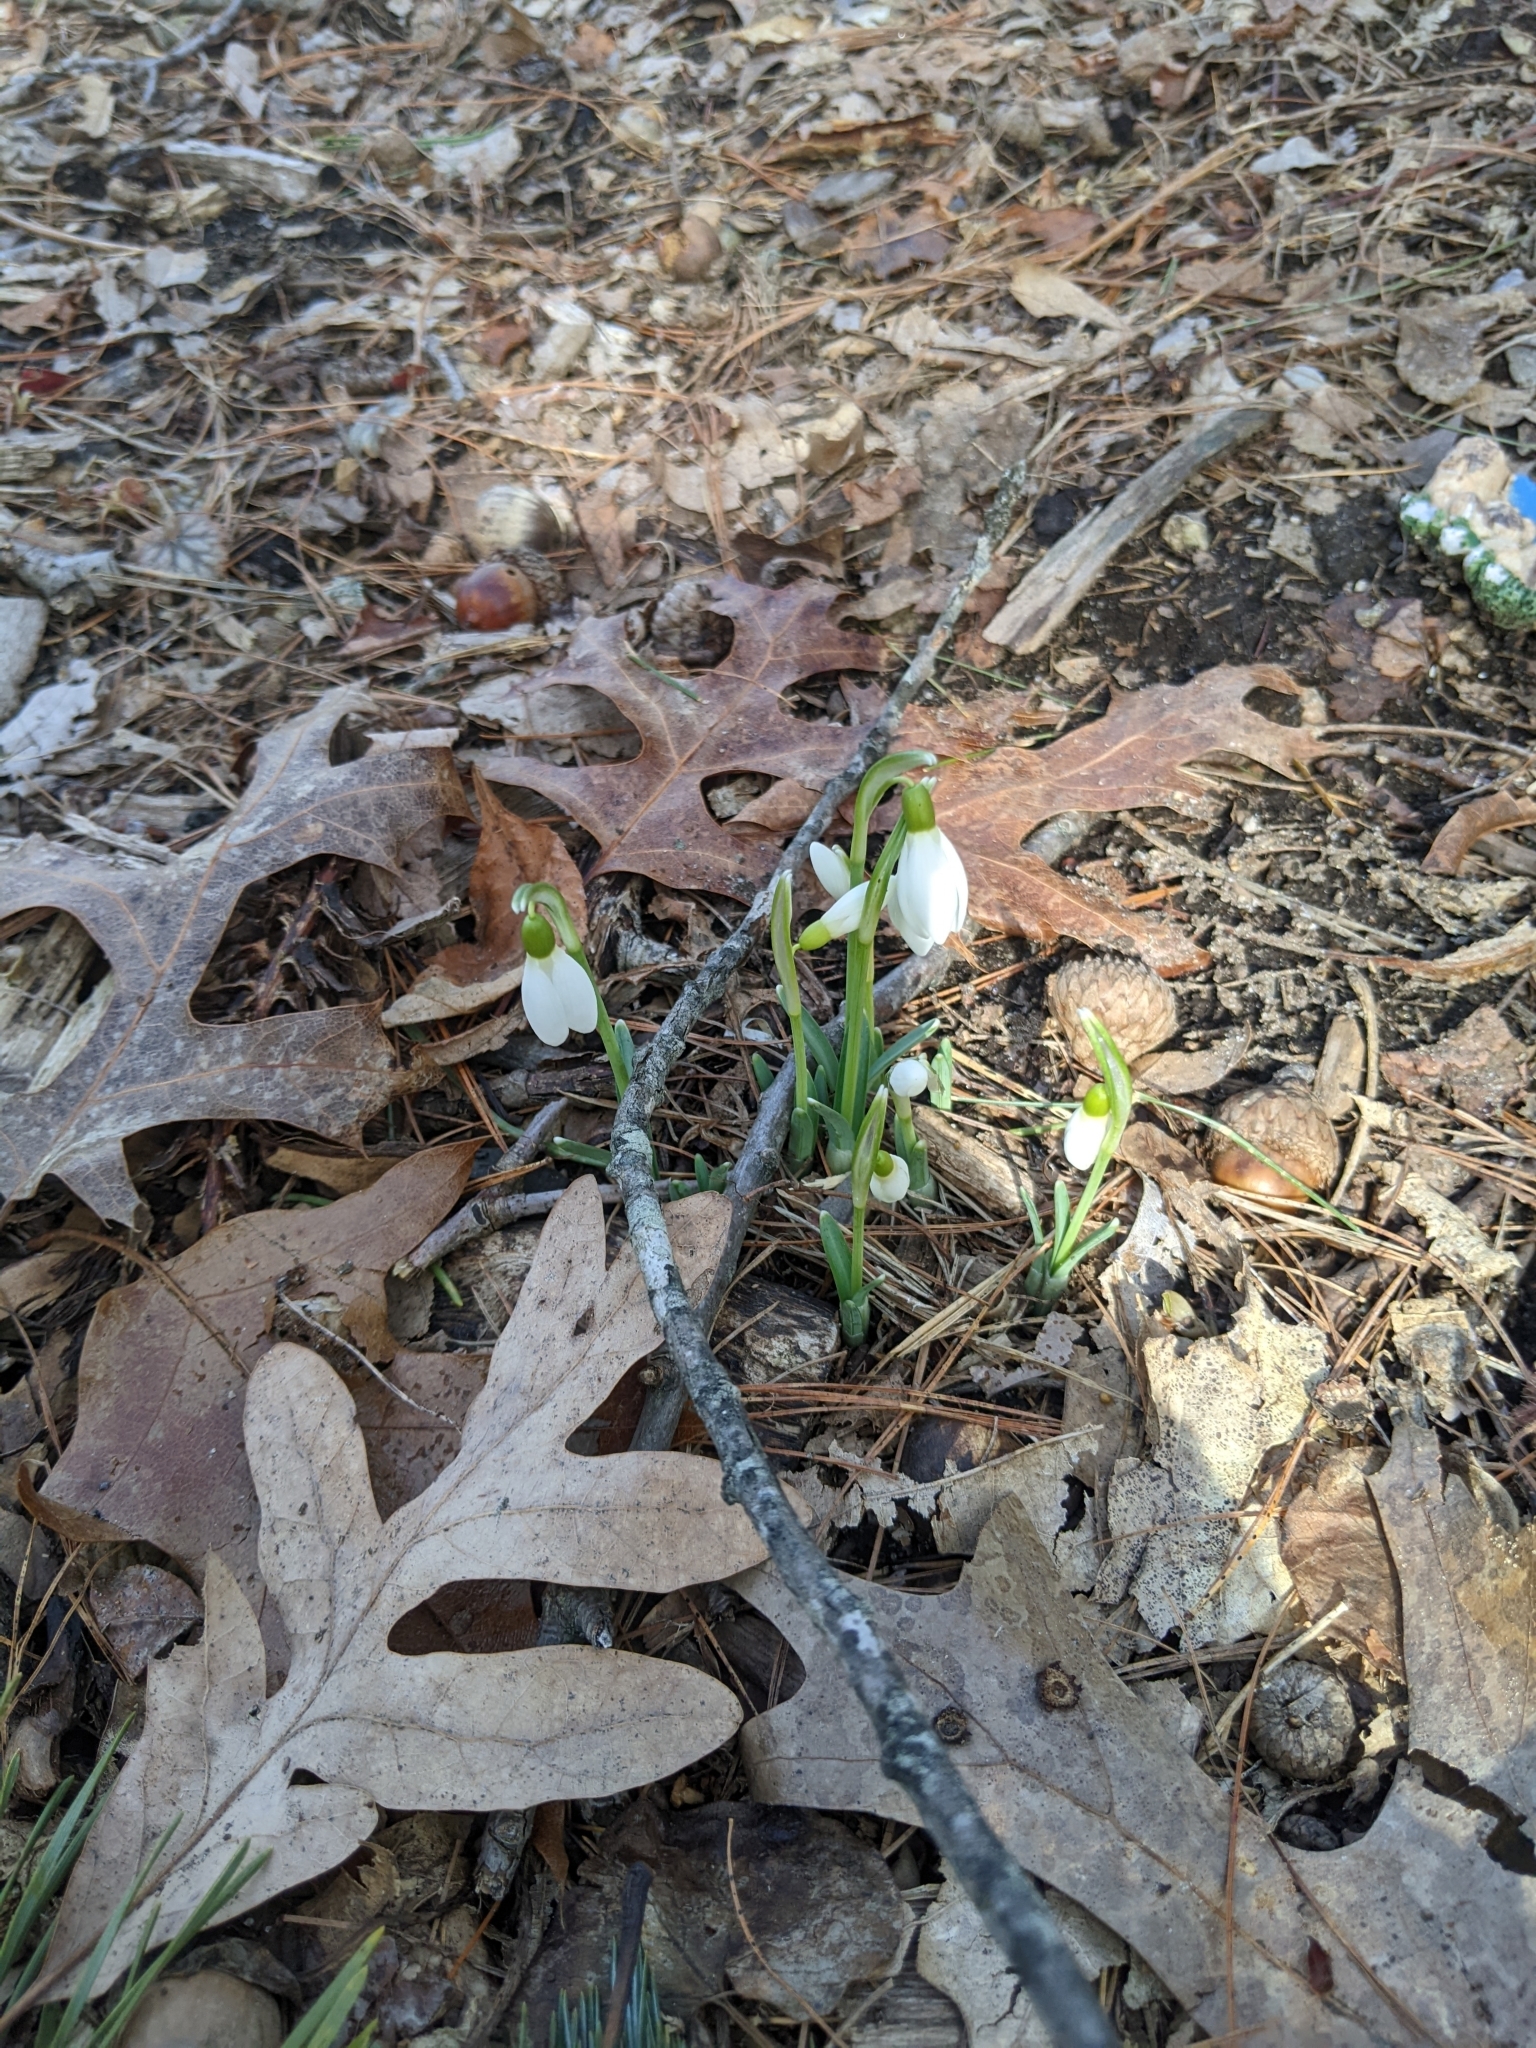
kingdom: Plantae
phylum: Tracheophyta
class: Liliopsida
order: Asparagales
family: Amaryllidaceae
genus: Galanthus
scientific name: Galanthus nivalis
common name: Snowdrop
